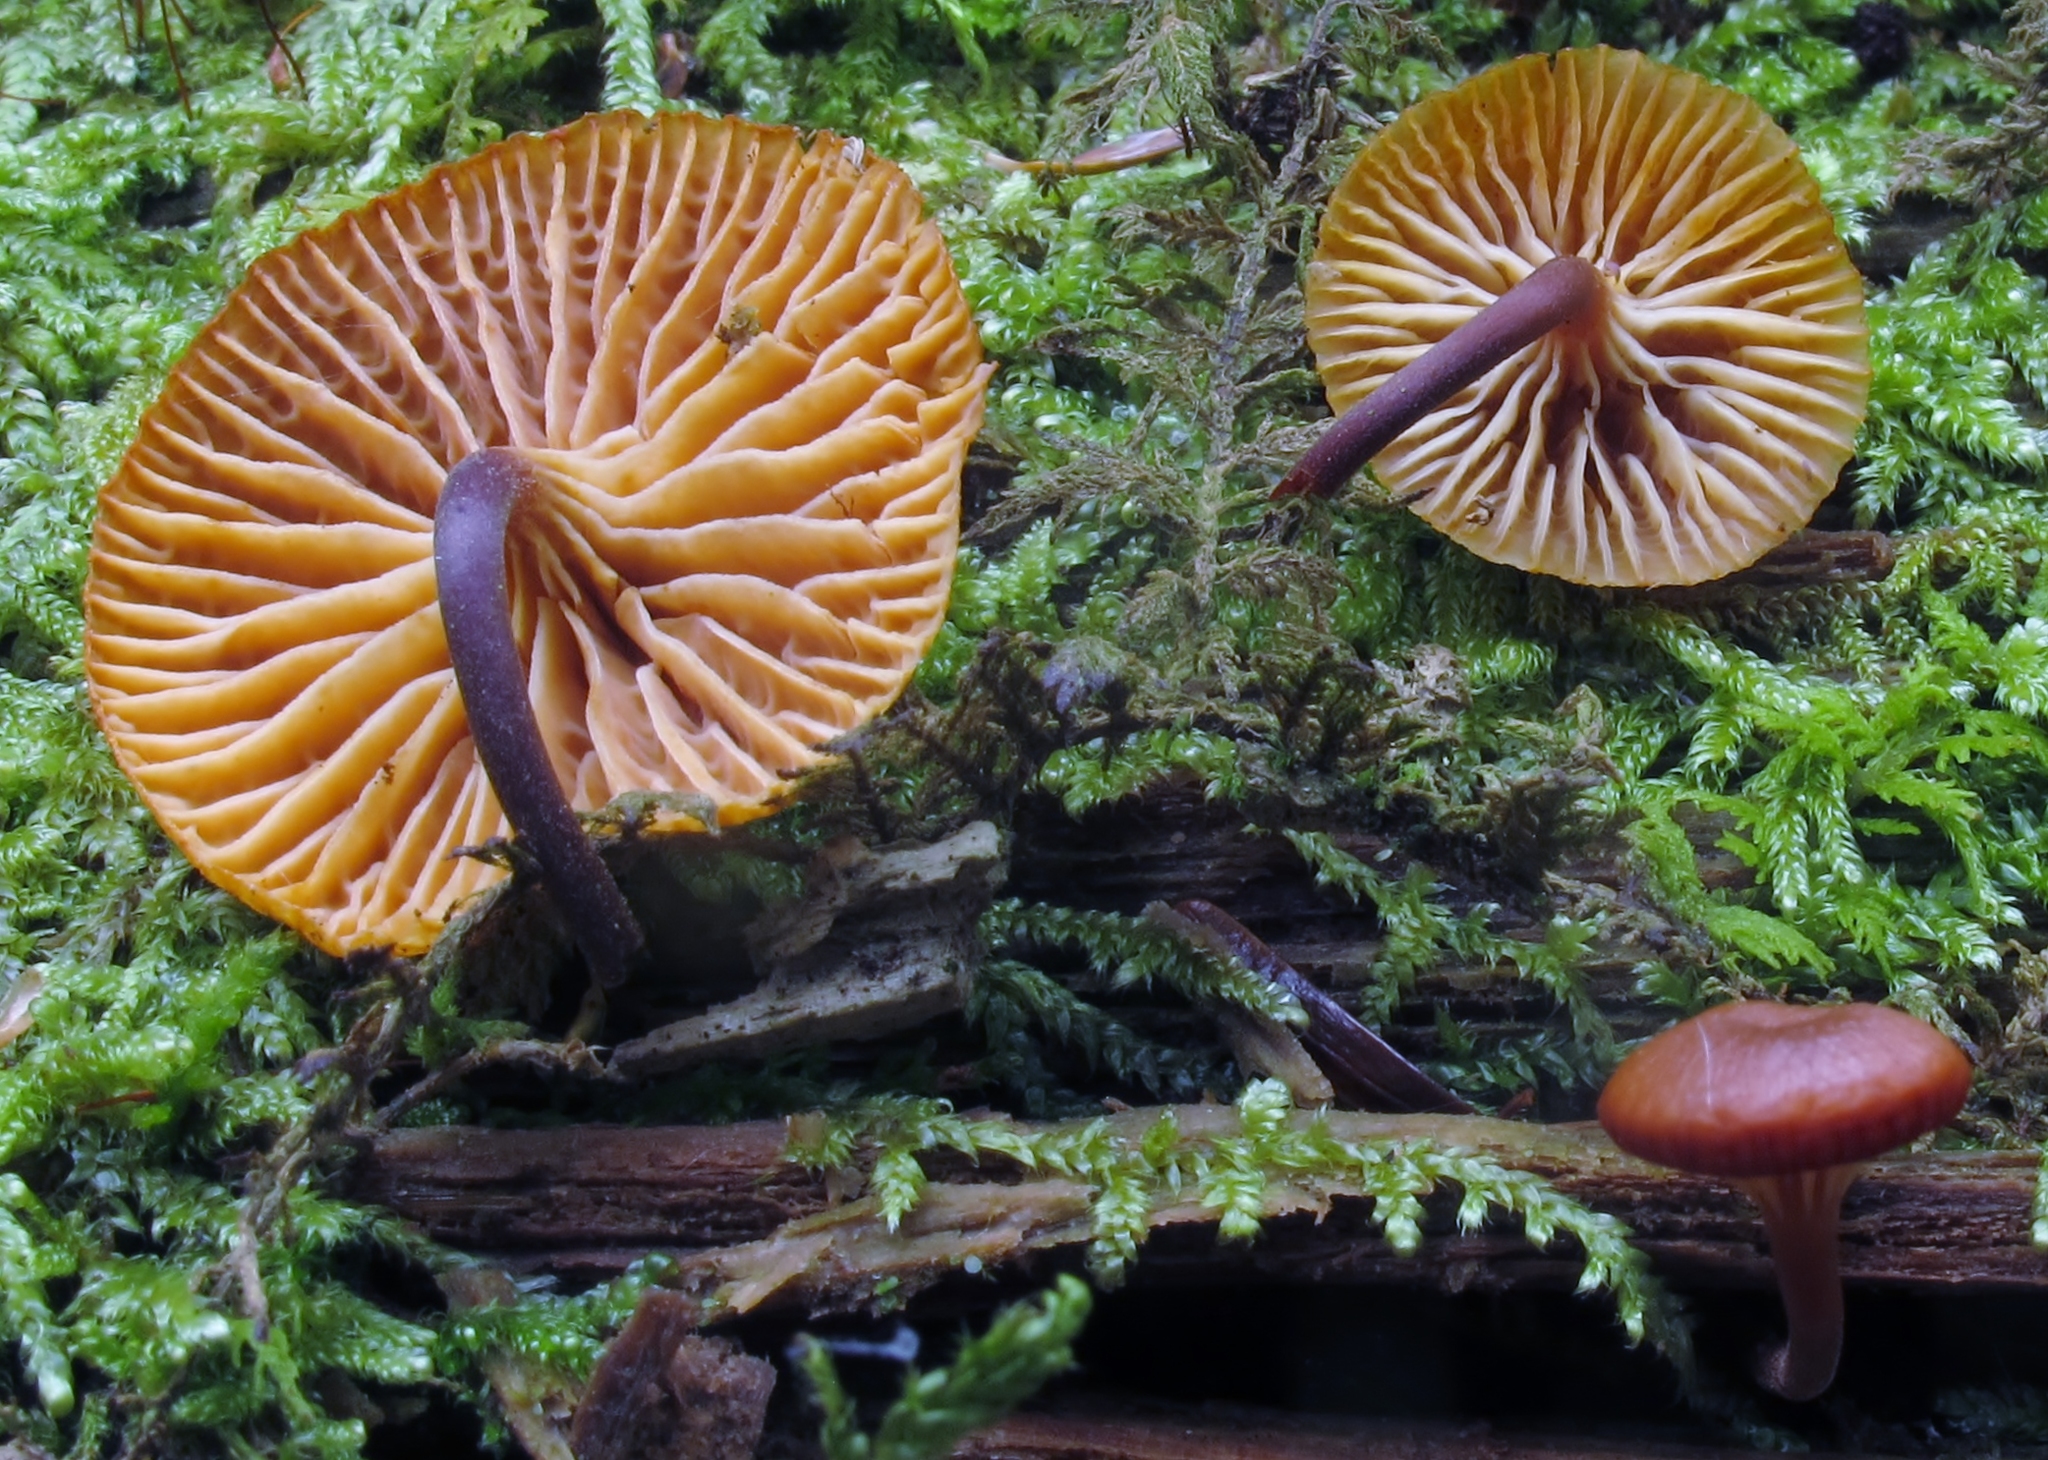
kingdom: Fungi
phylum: Basidiomycota
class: Agaricomycetes
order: Agaricales
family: Mycenaceae
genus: Xeromphalina
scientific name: Xeromphalina campanella
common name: Pinewood gingertail
